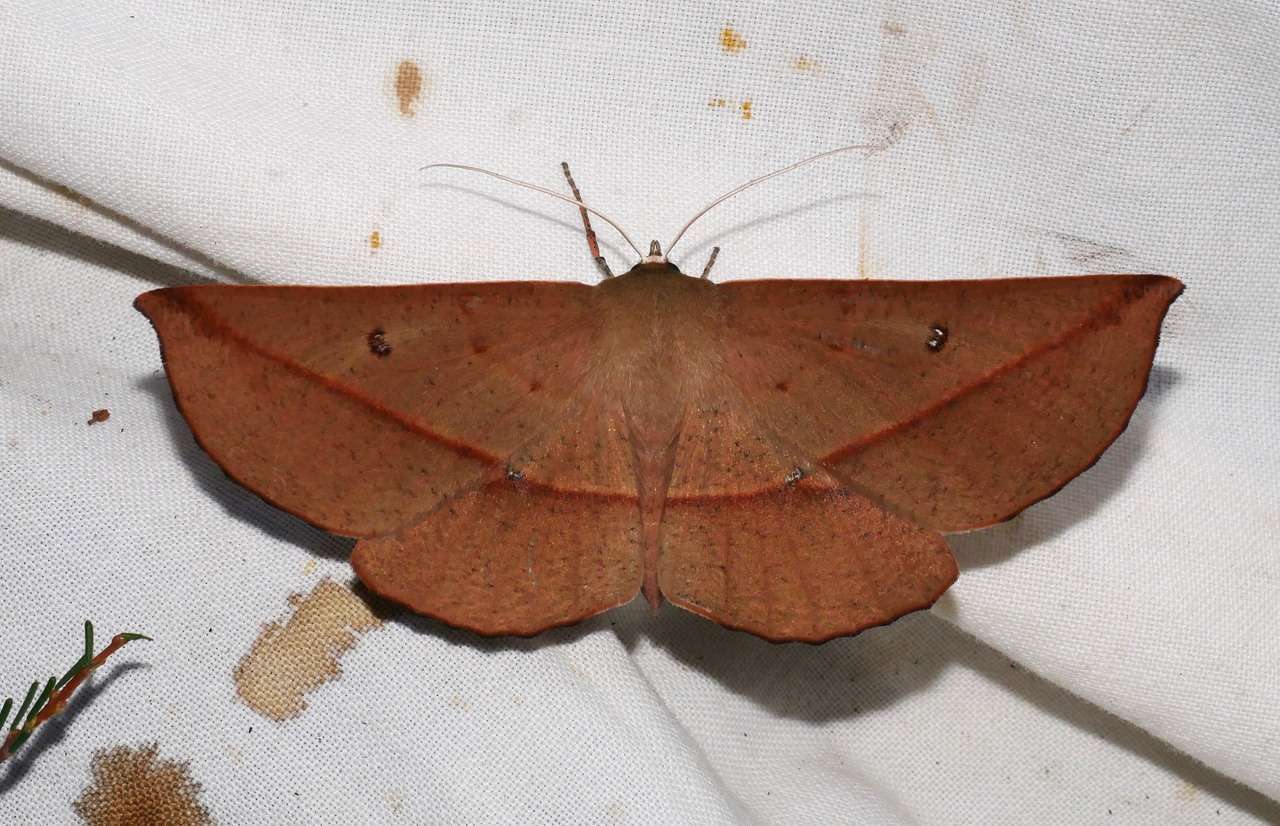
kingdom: Animalia
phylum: Arthropoda
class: Insecta
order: Lepidoptera
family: Geometridae
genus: Phallaria
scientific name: Phallaria ophiusaria
